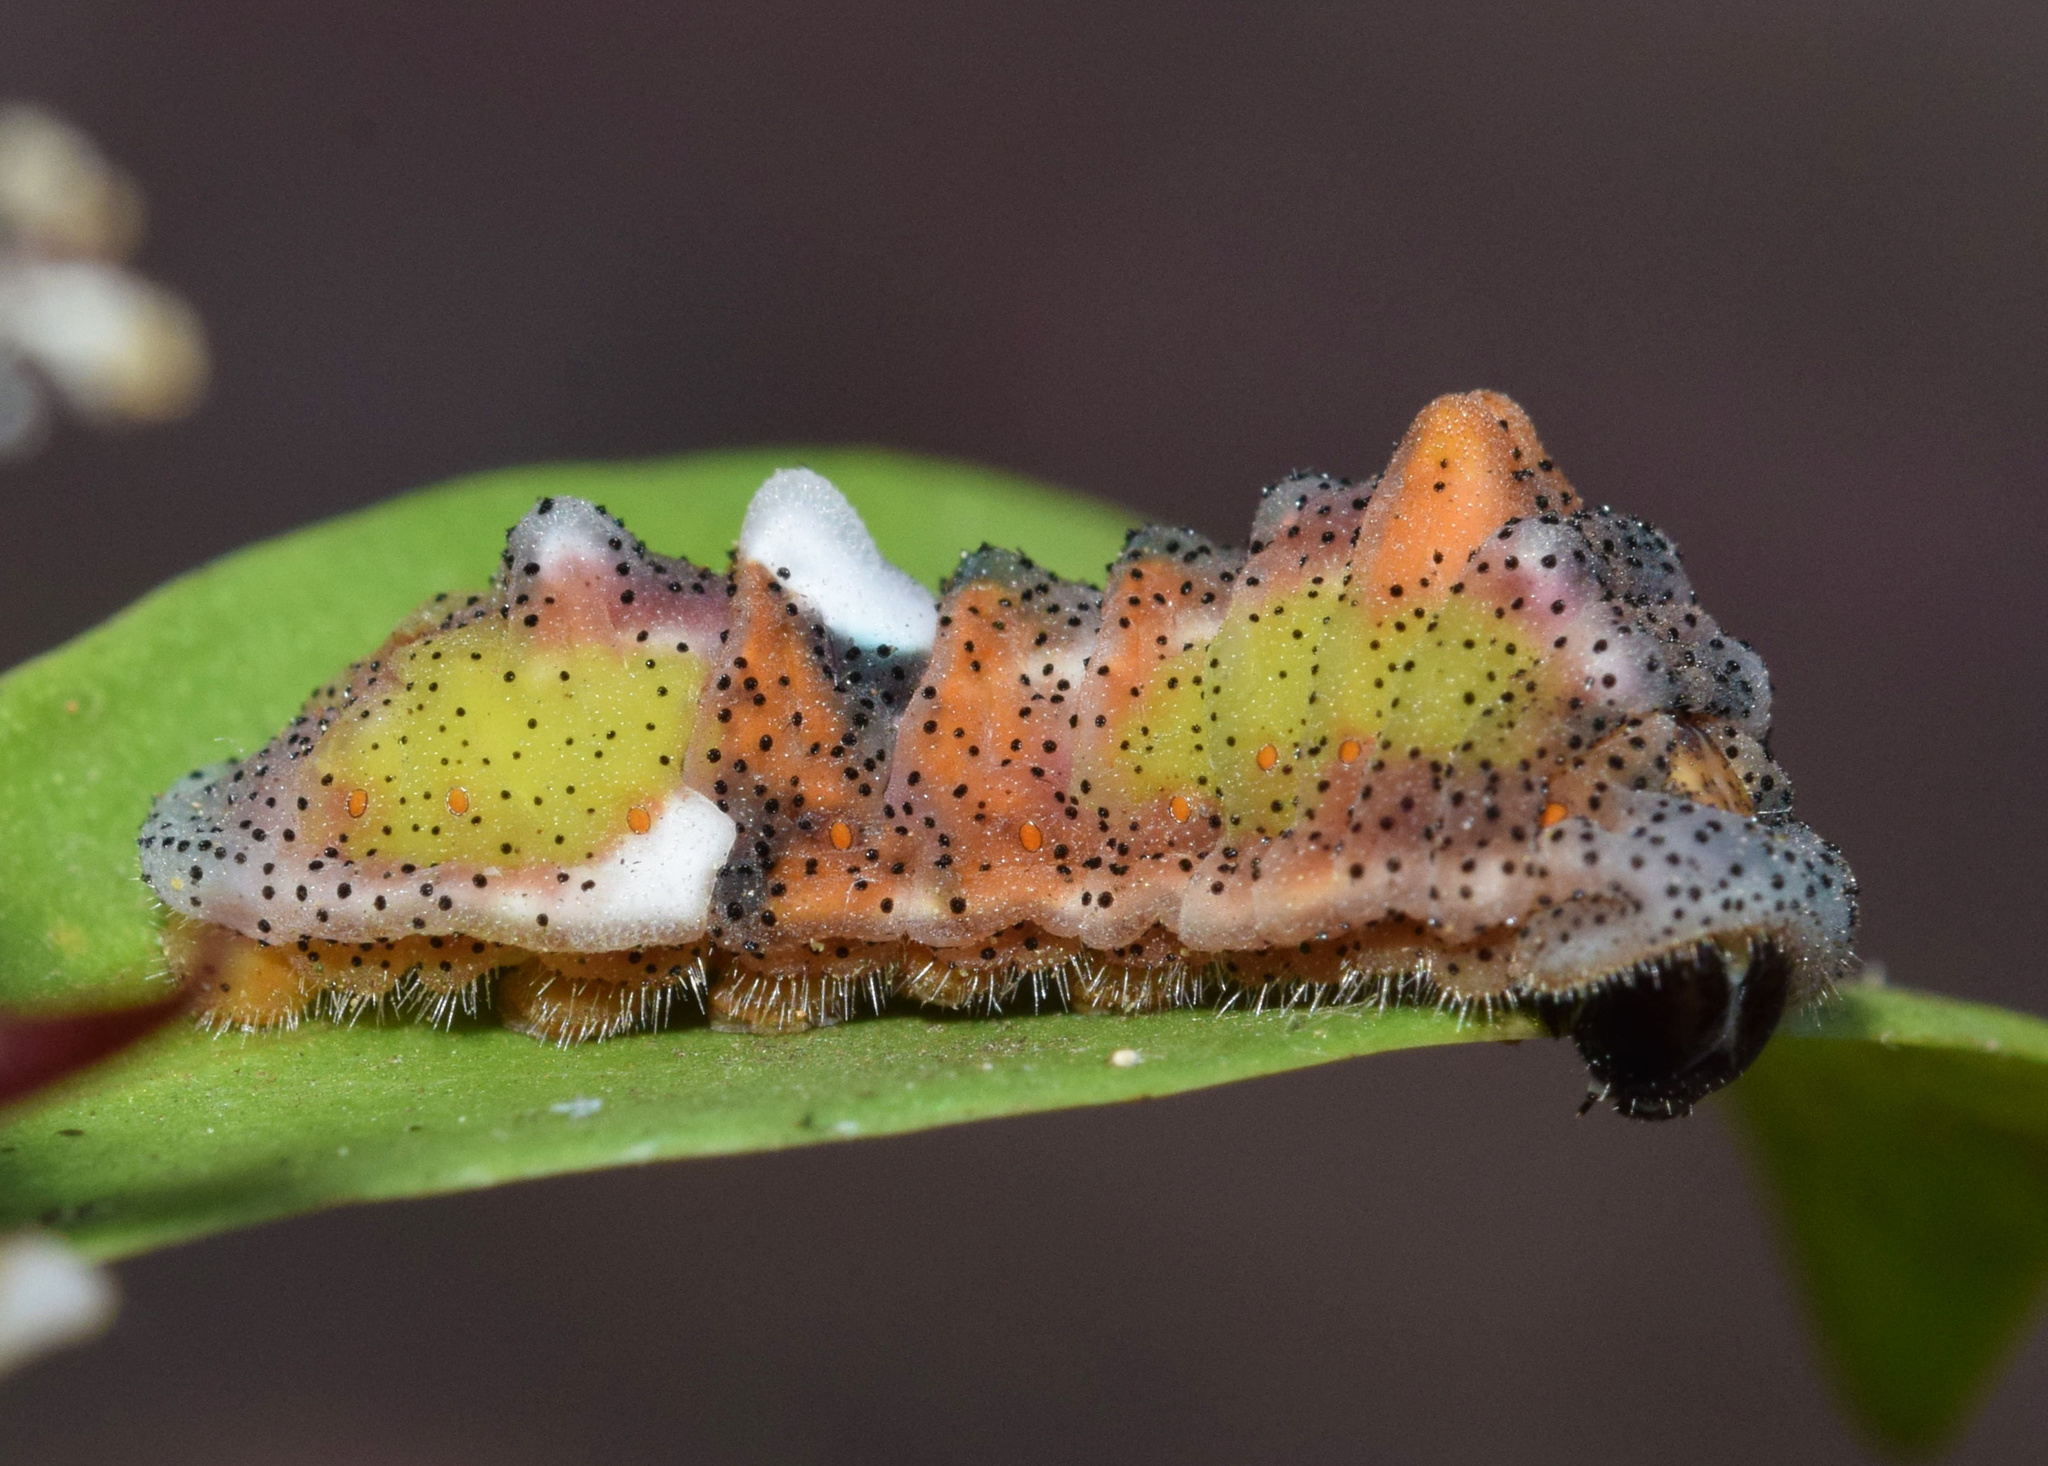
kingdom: Animalia
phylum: Arthropoda
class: Insecta
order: Lepidoptera
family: Lycaenidae
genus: Myrina
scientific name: Myrina silenus
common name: Amber fig-tree blue
